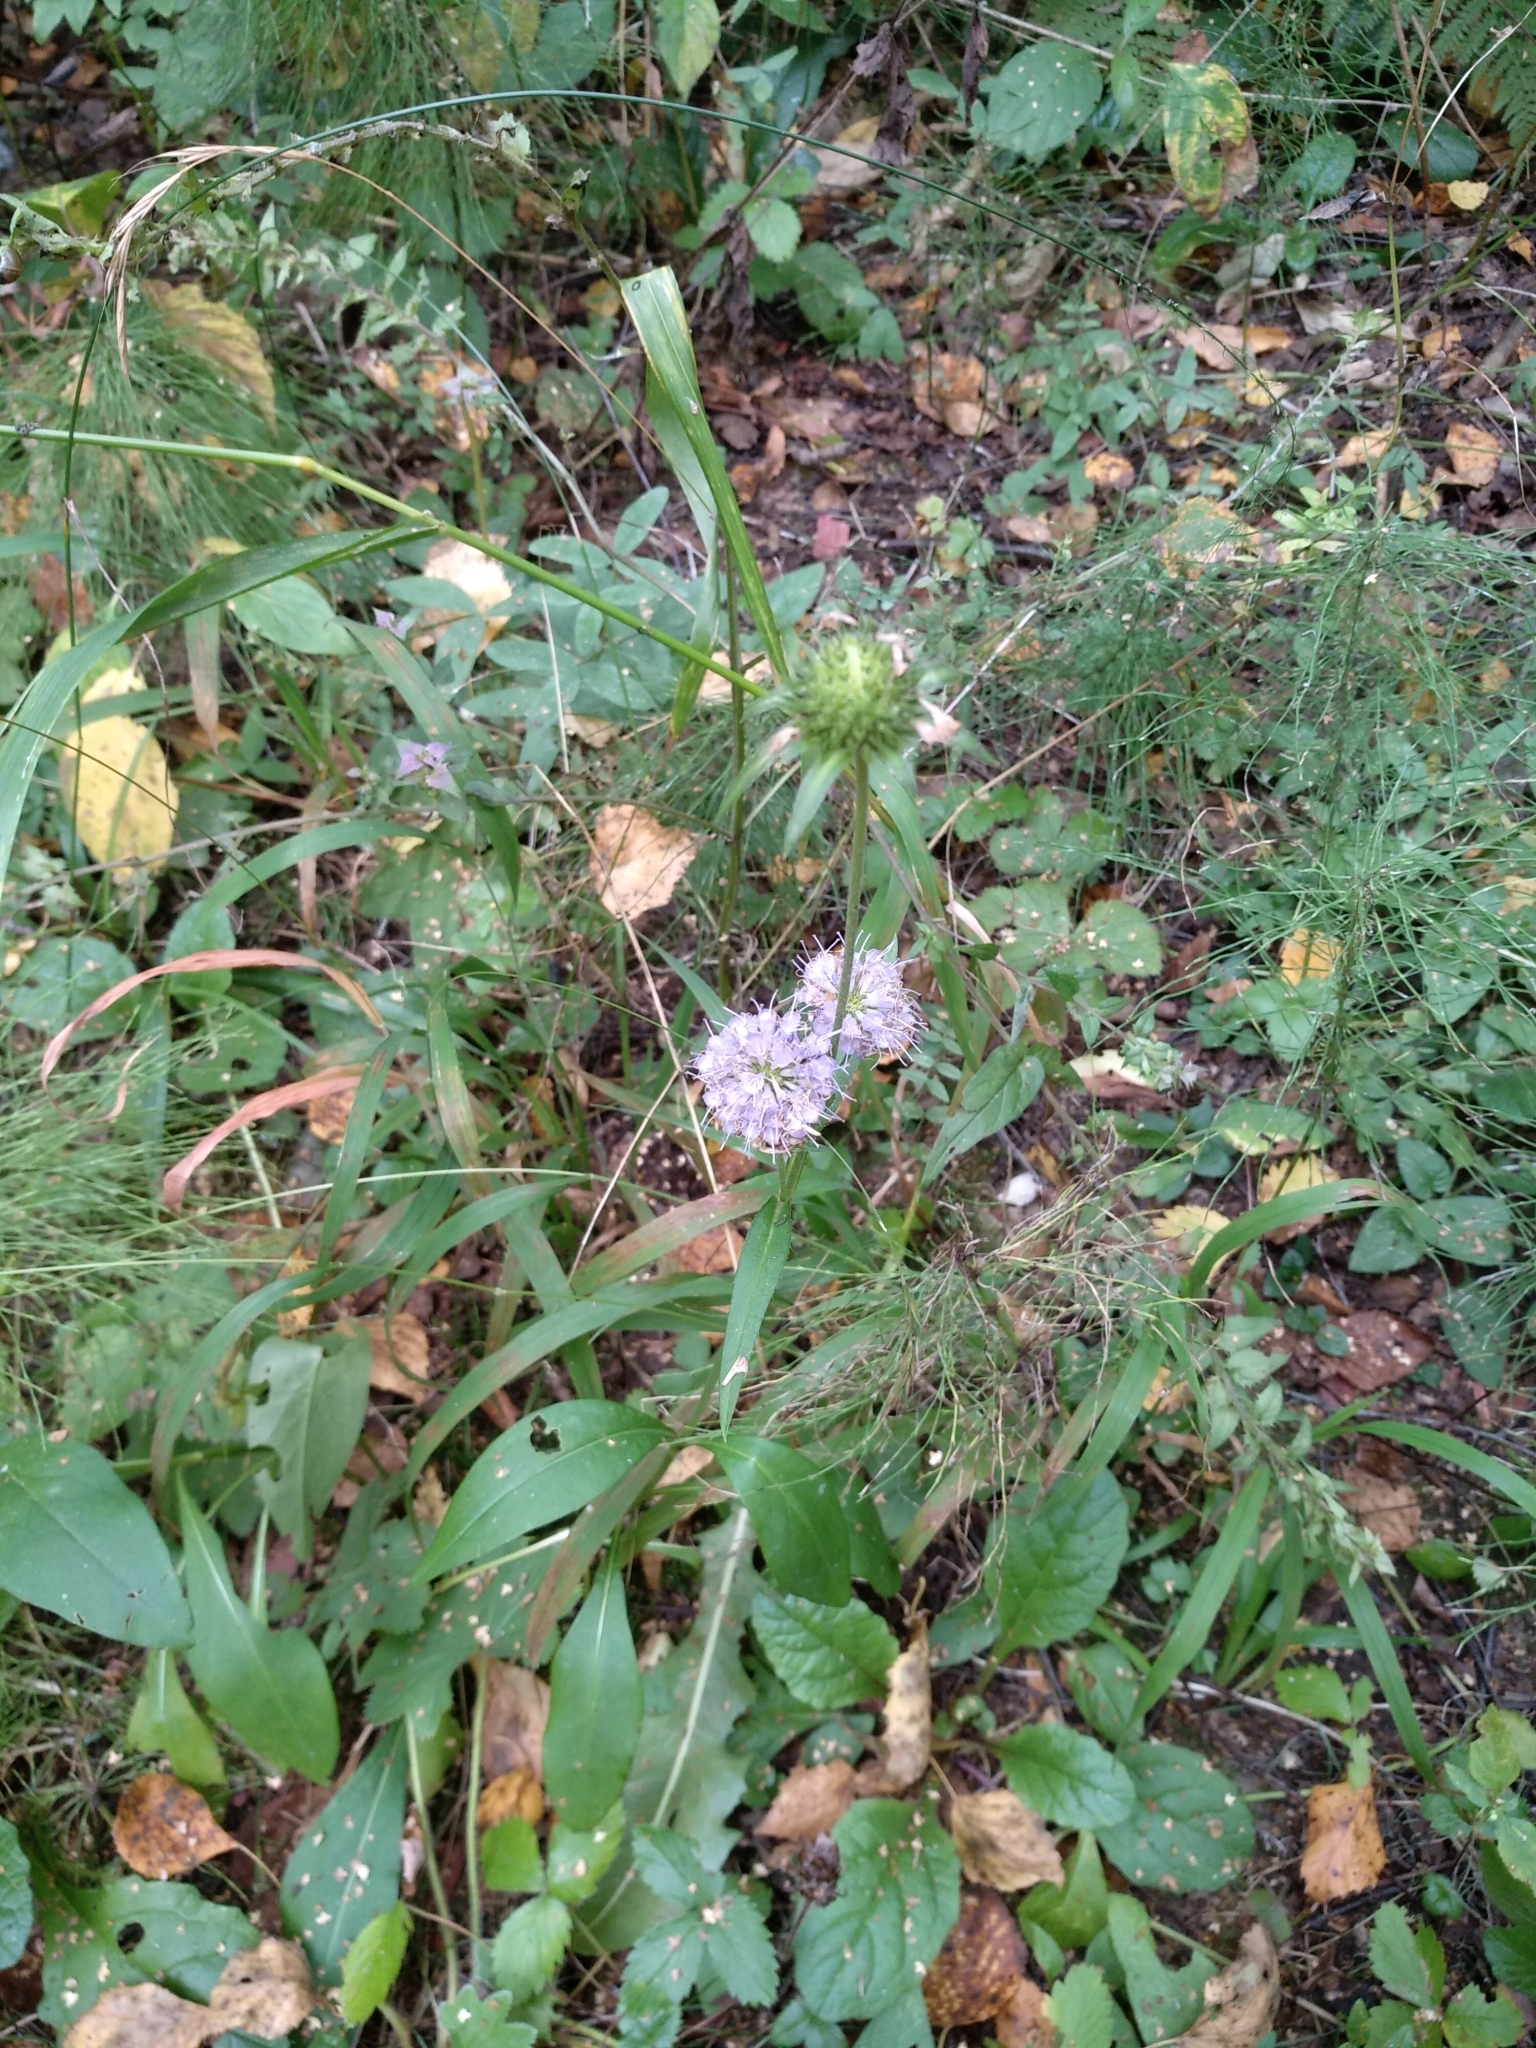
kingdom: Plantae
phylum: Tracheophyta
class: Magnoliopsida
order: Dipsacales
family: Caprifoliaceae
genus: Succisa
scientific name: Succisa pratensis
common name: Devil's-bit
